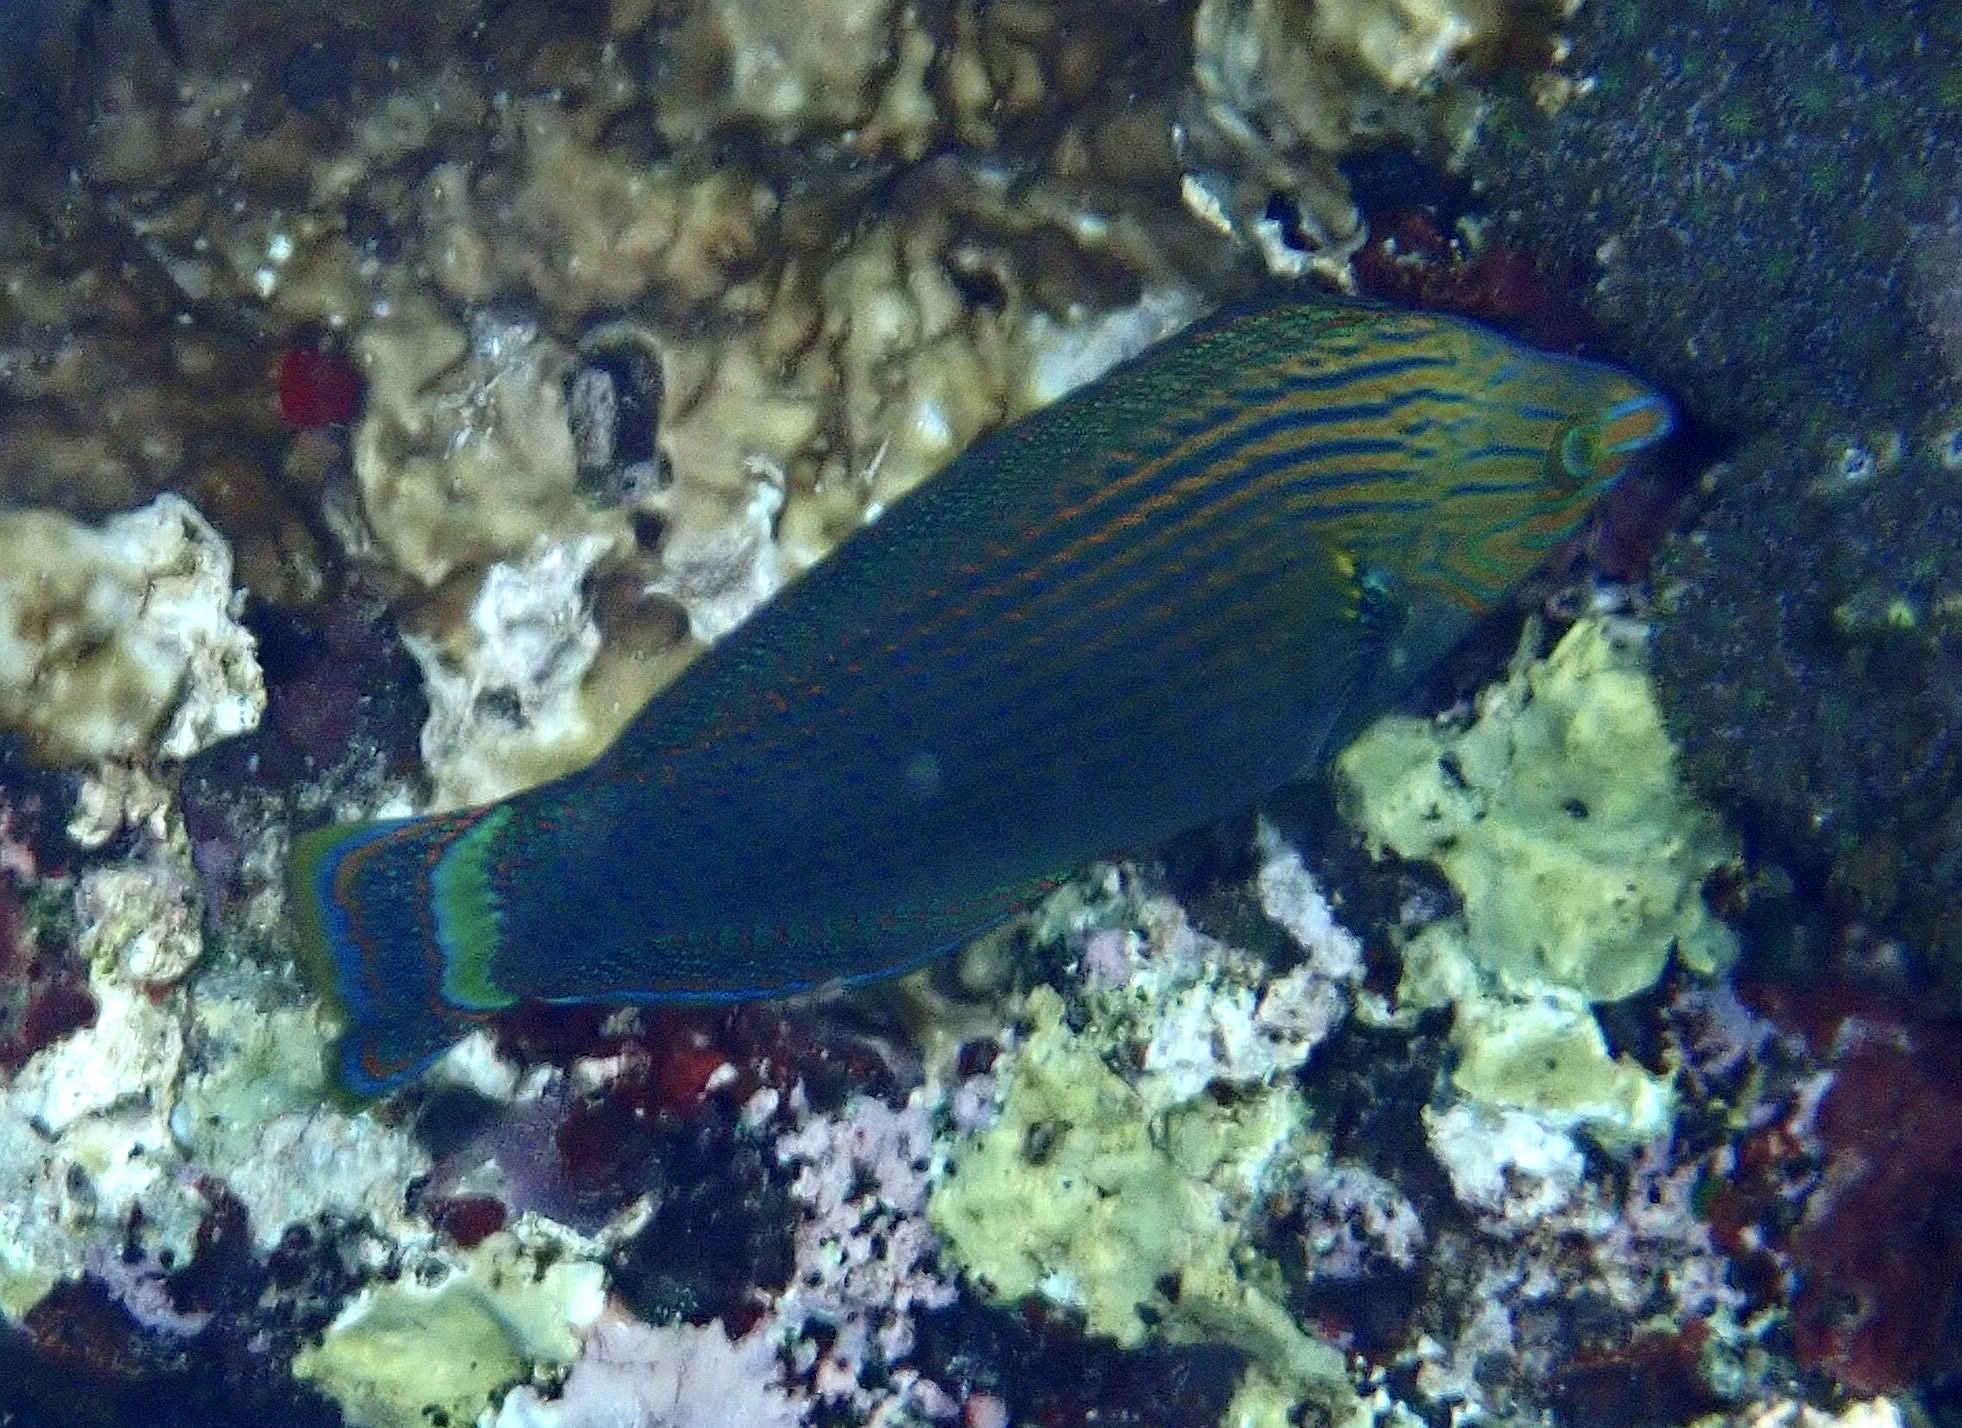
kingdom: Animalia
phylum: Chordata
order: Perciformes
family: Labridae
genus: Halichoeres
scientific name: Halichoeres
